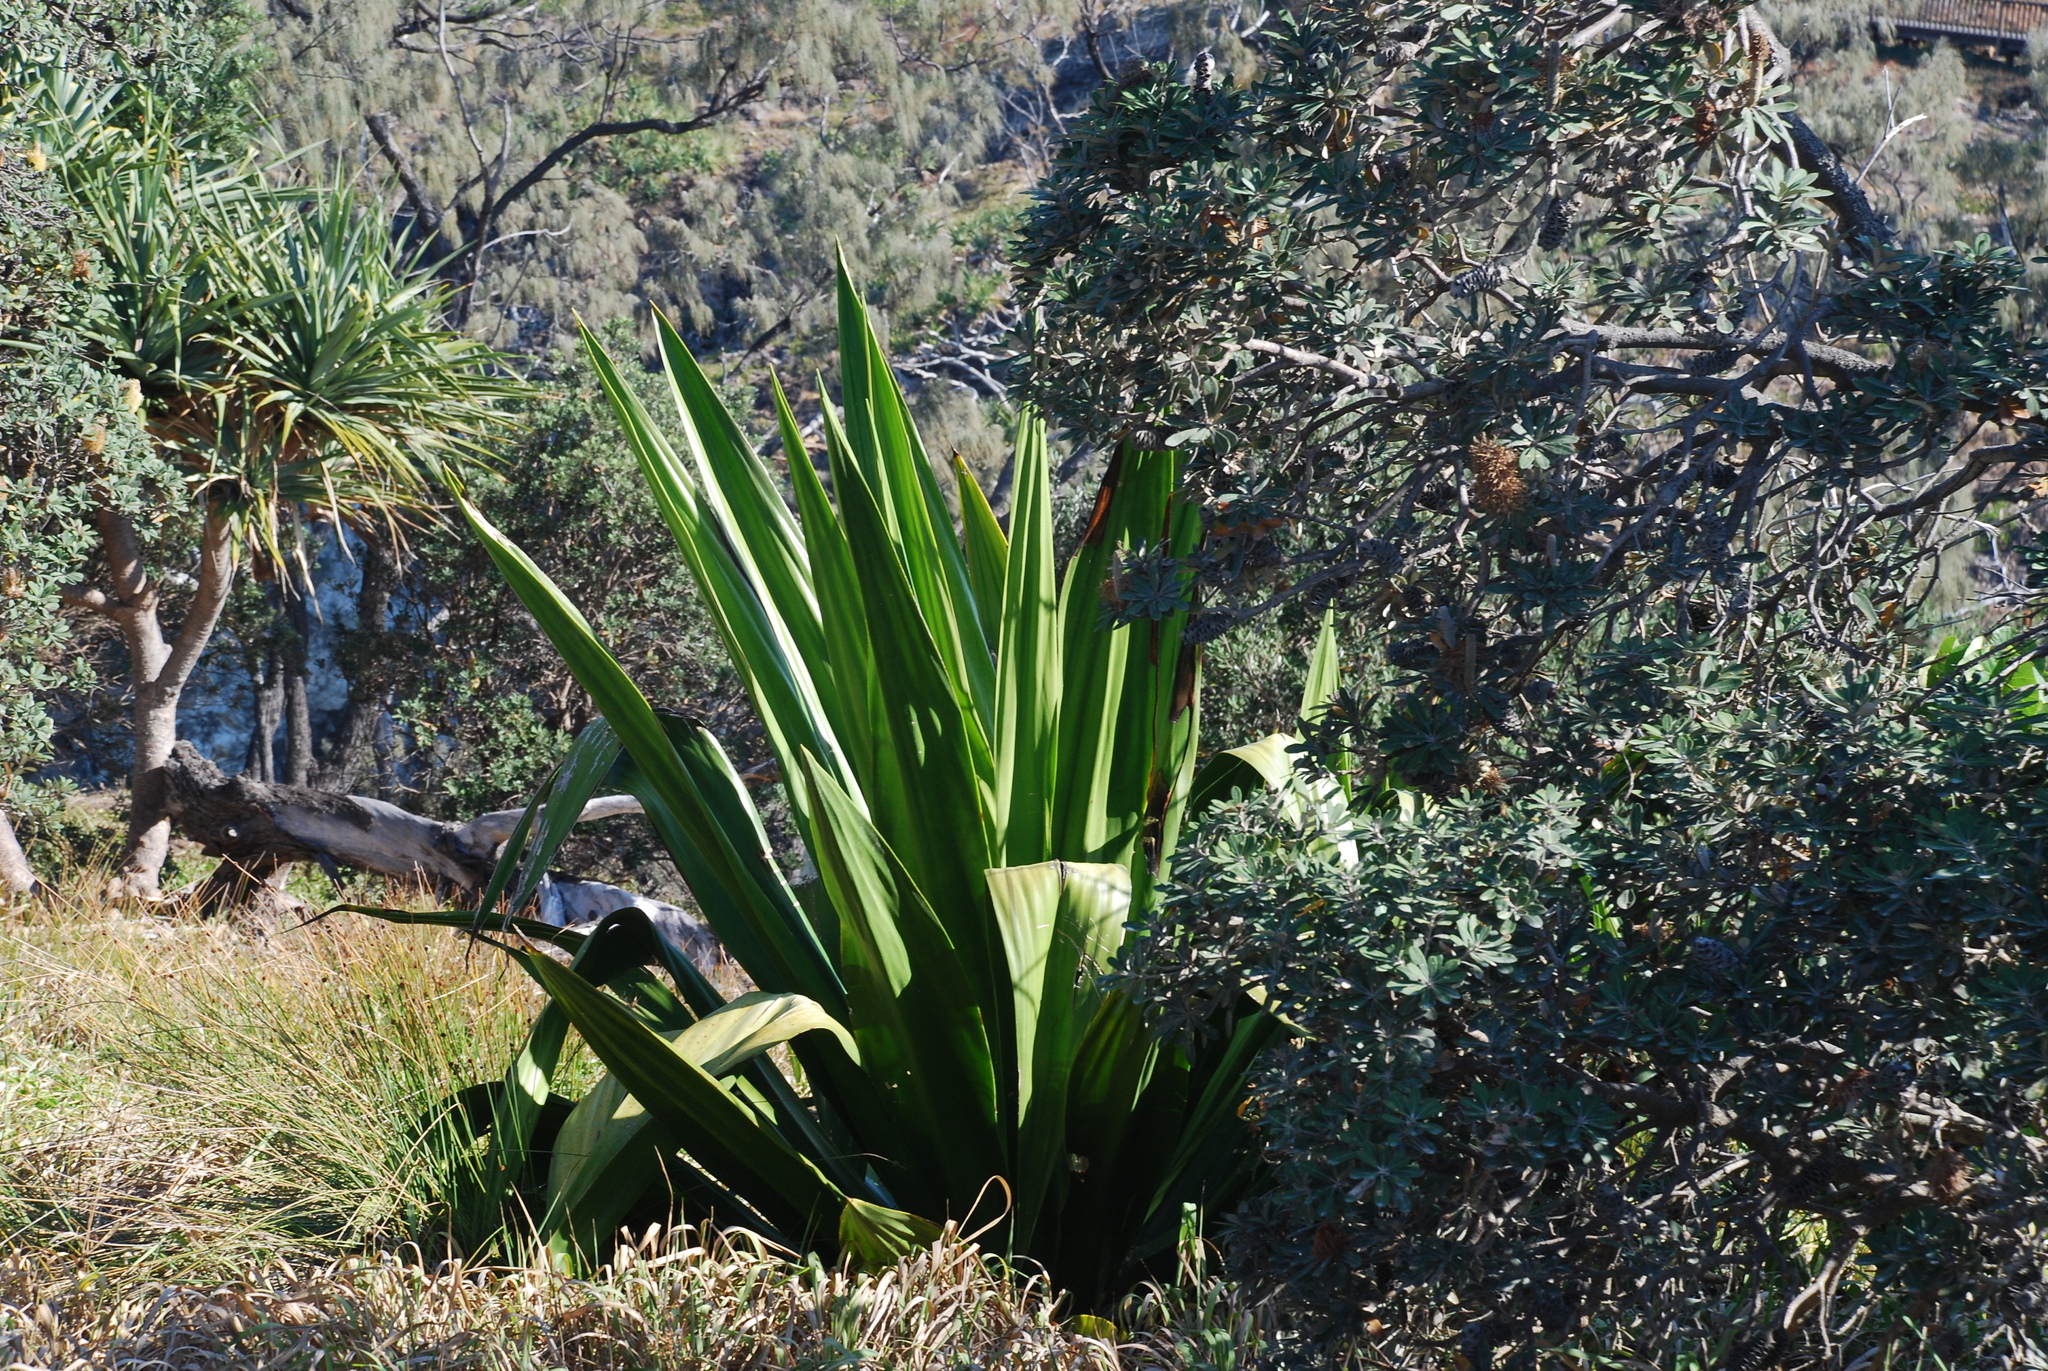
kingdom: Plantae
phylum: Tracheophyta
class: Liliopsida
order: Asparagales
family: Asparagaceae
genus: Furcraea
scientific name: Furcraea foetida
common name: Mauritius hemp
